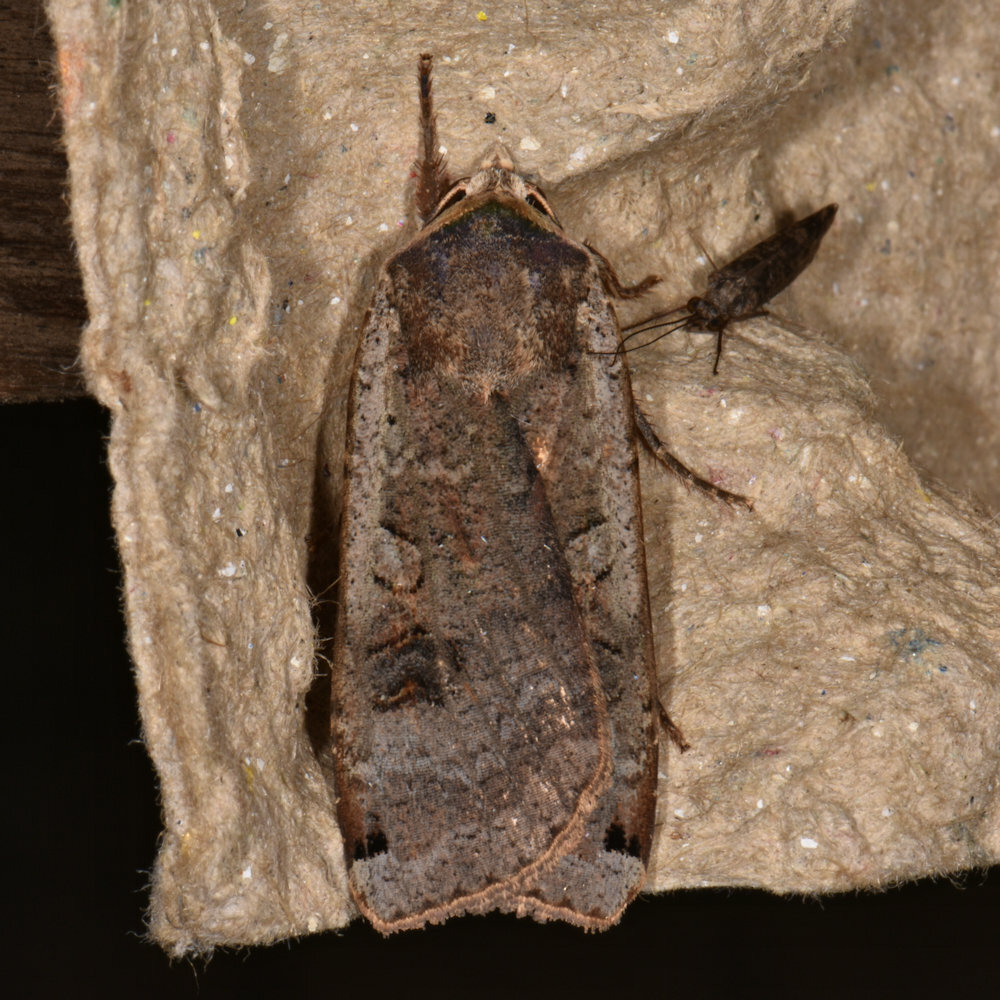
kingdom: Animalia
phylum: Arthropoda
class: Insecta
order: Lepidoptera
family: Noctuidae
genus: Noctua
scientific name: Noctua pronuba
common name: Large yellow underwing
